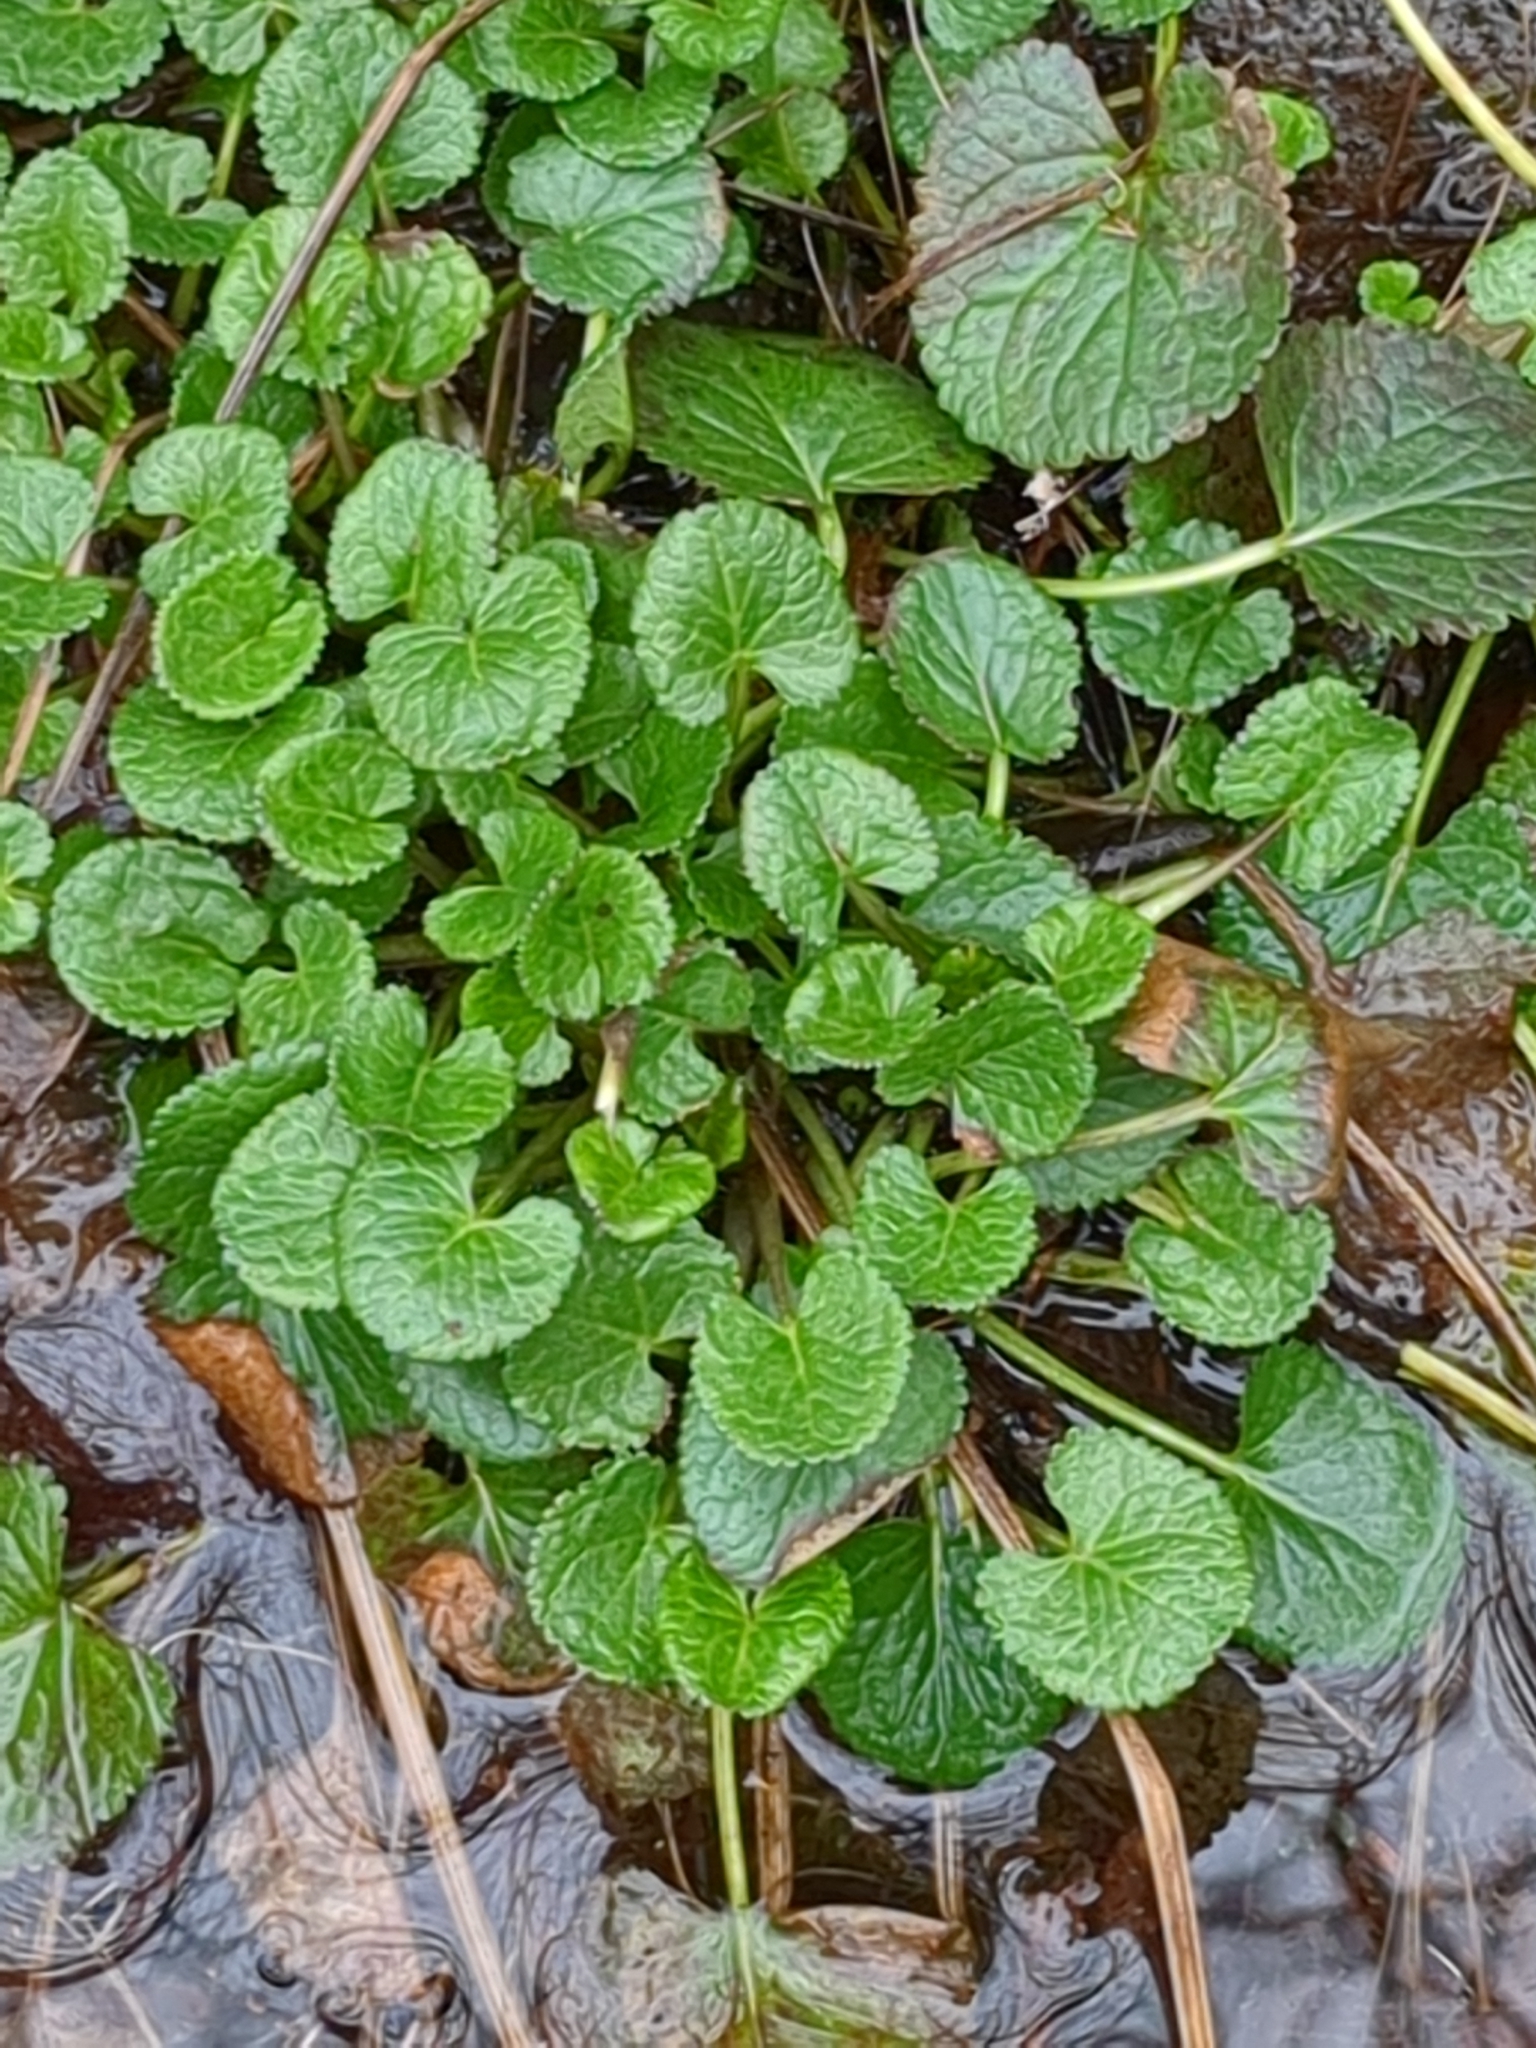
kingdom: Plantae
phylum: Tracheophyta
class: Magnoliopsida
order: Asterales
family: Asteraceae
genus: Packera
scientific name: Packera aurea
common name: Golden groundsel
